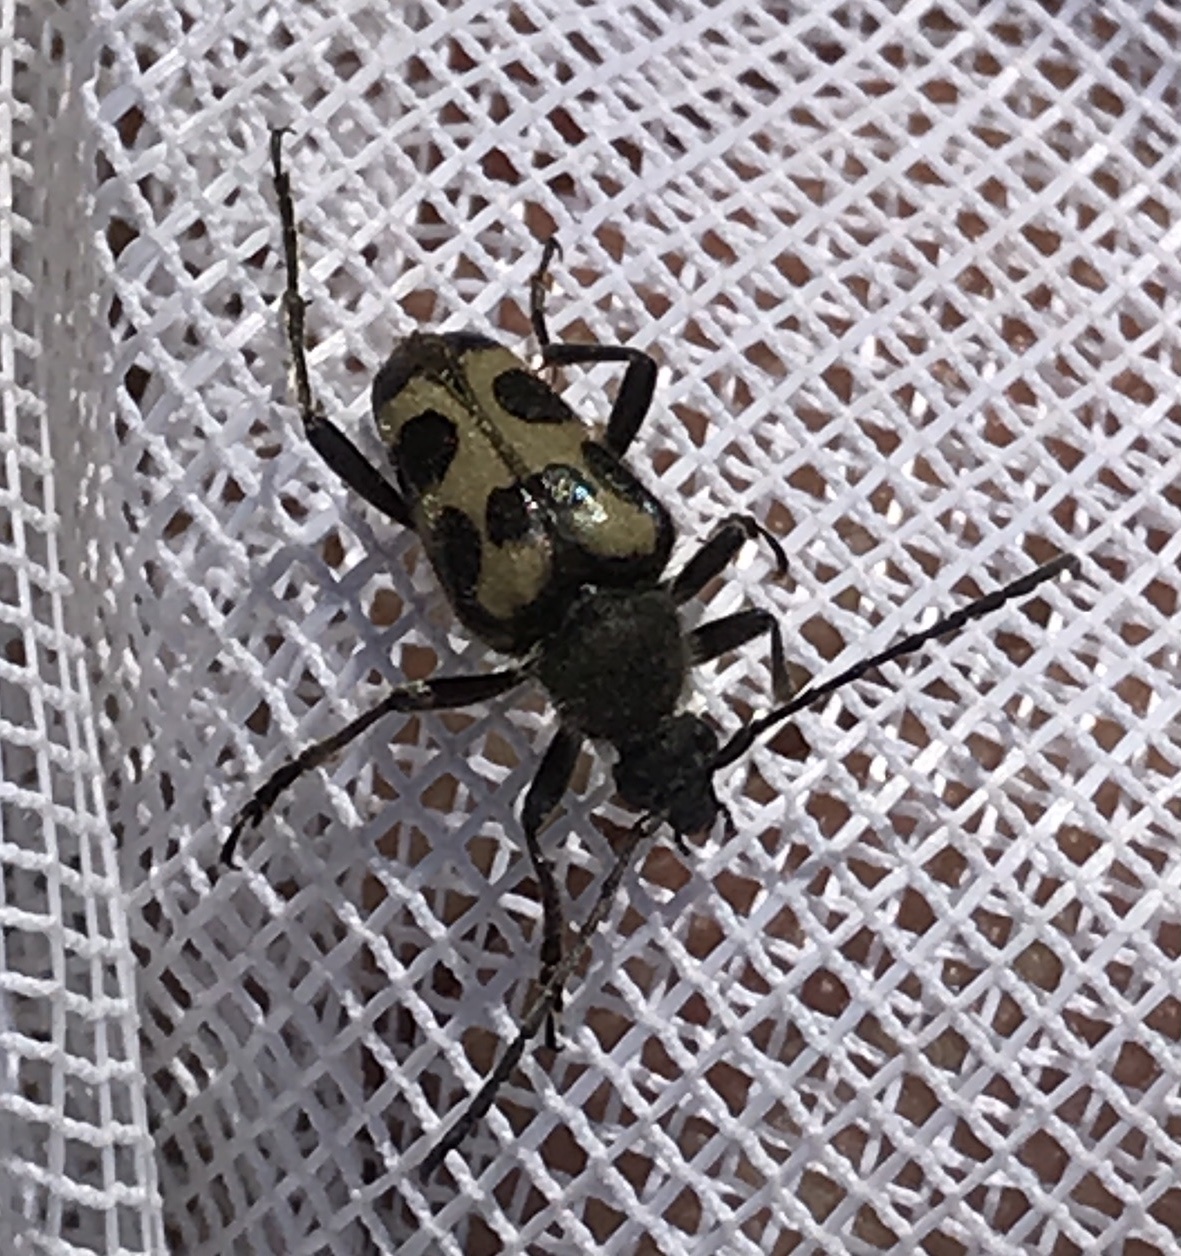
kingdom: Animalia
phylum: Arthropoda
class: Insecta
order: Coleoptera
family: Cerambycidae
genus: Judolia
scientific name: Judolia instabilis
